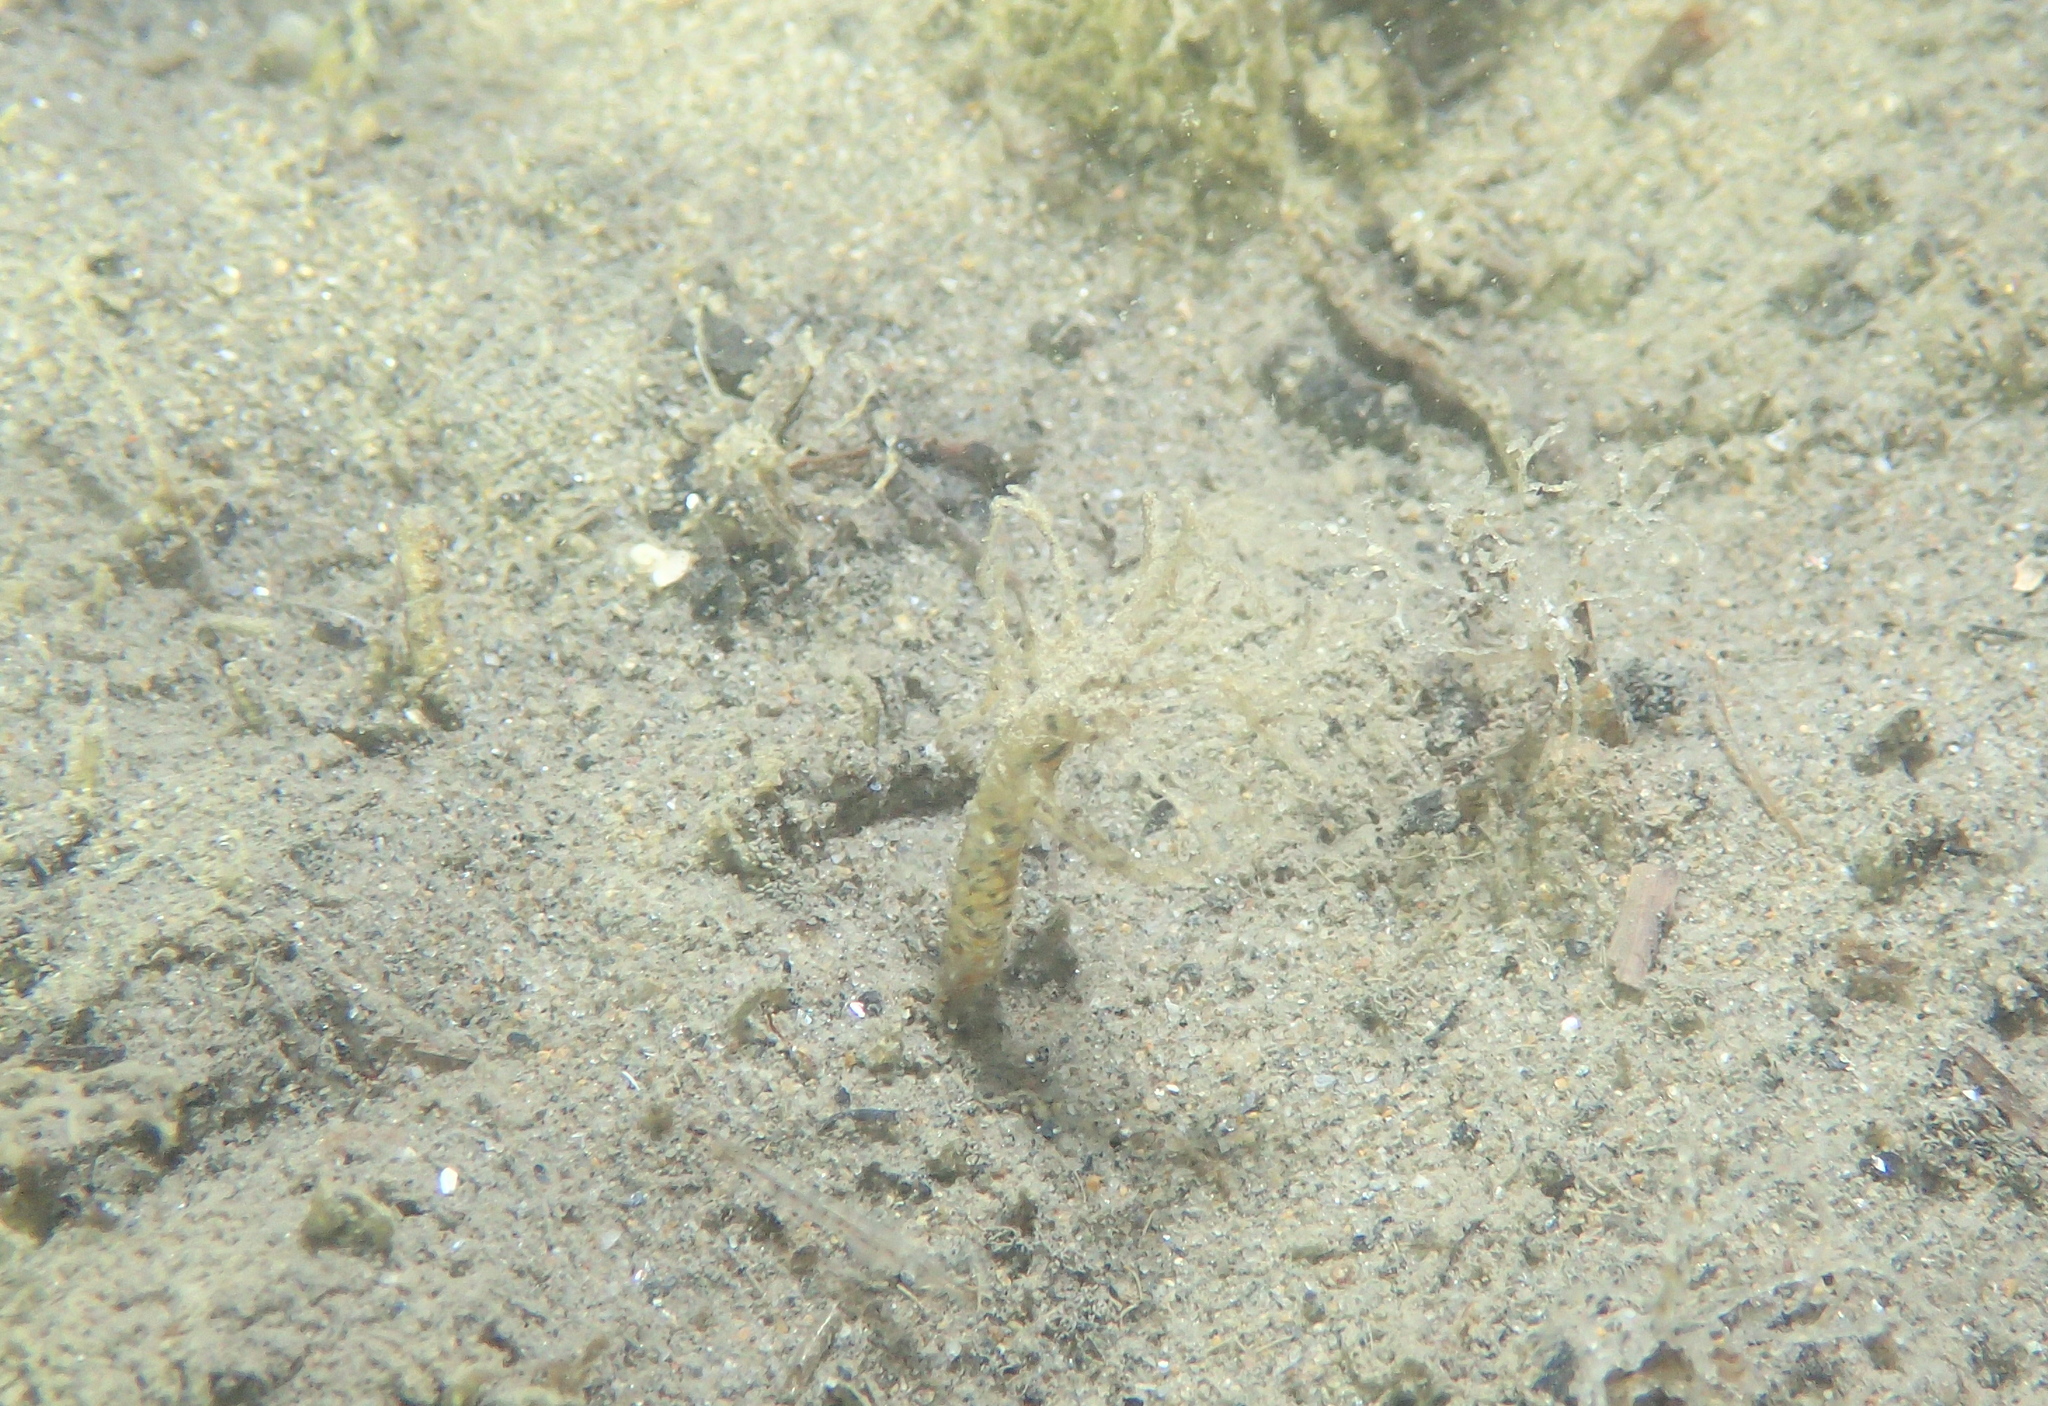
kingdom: Animalia
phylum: Annelida
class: Polychaeta
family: Terebellidae
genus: Lanice
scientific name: Lanice conchilega
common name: Sand mason
